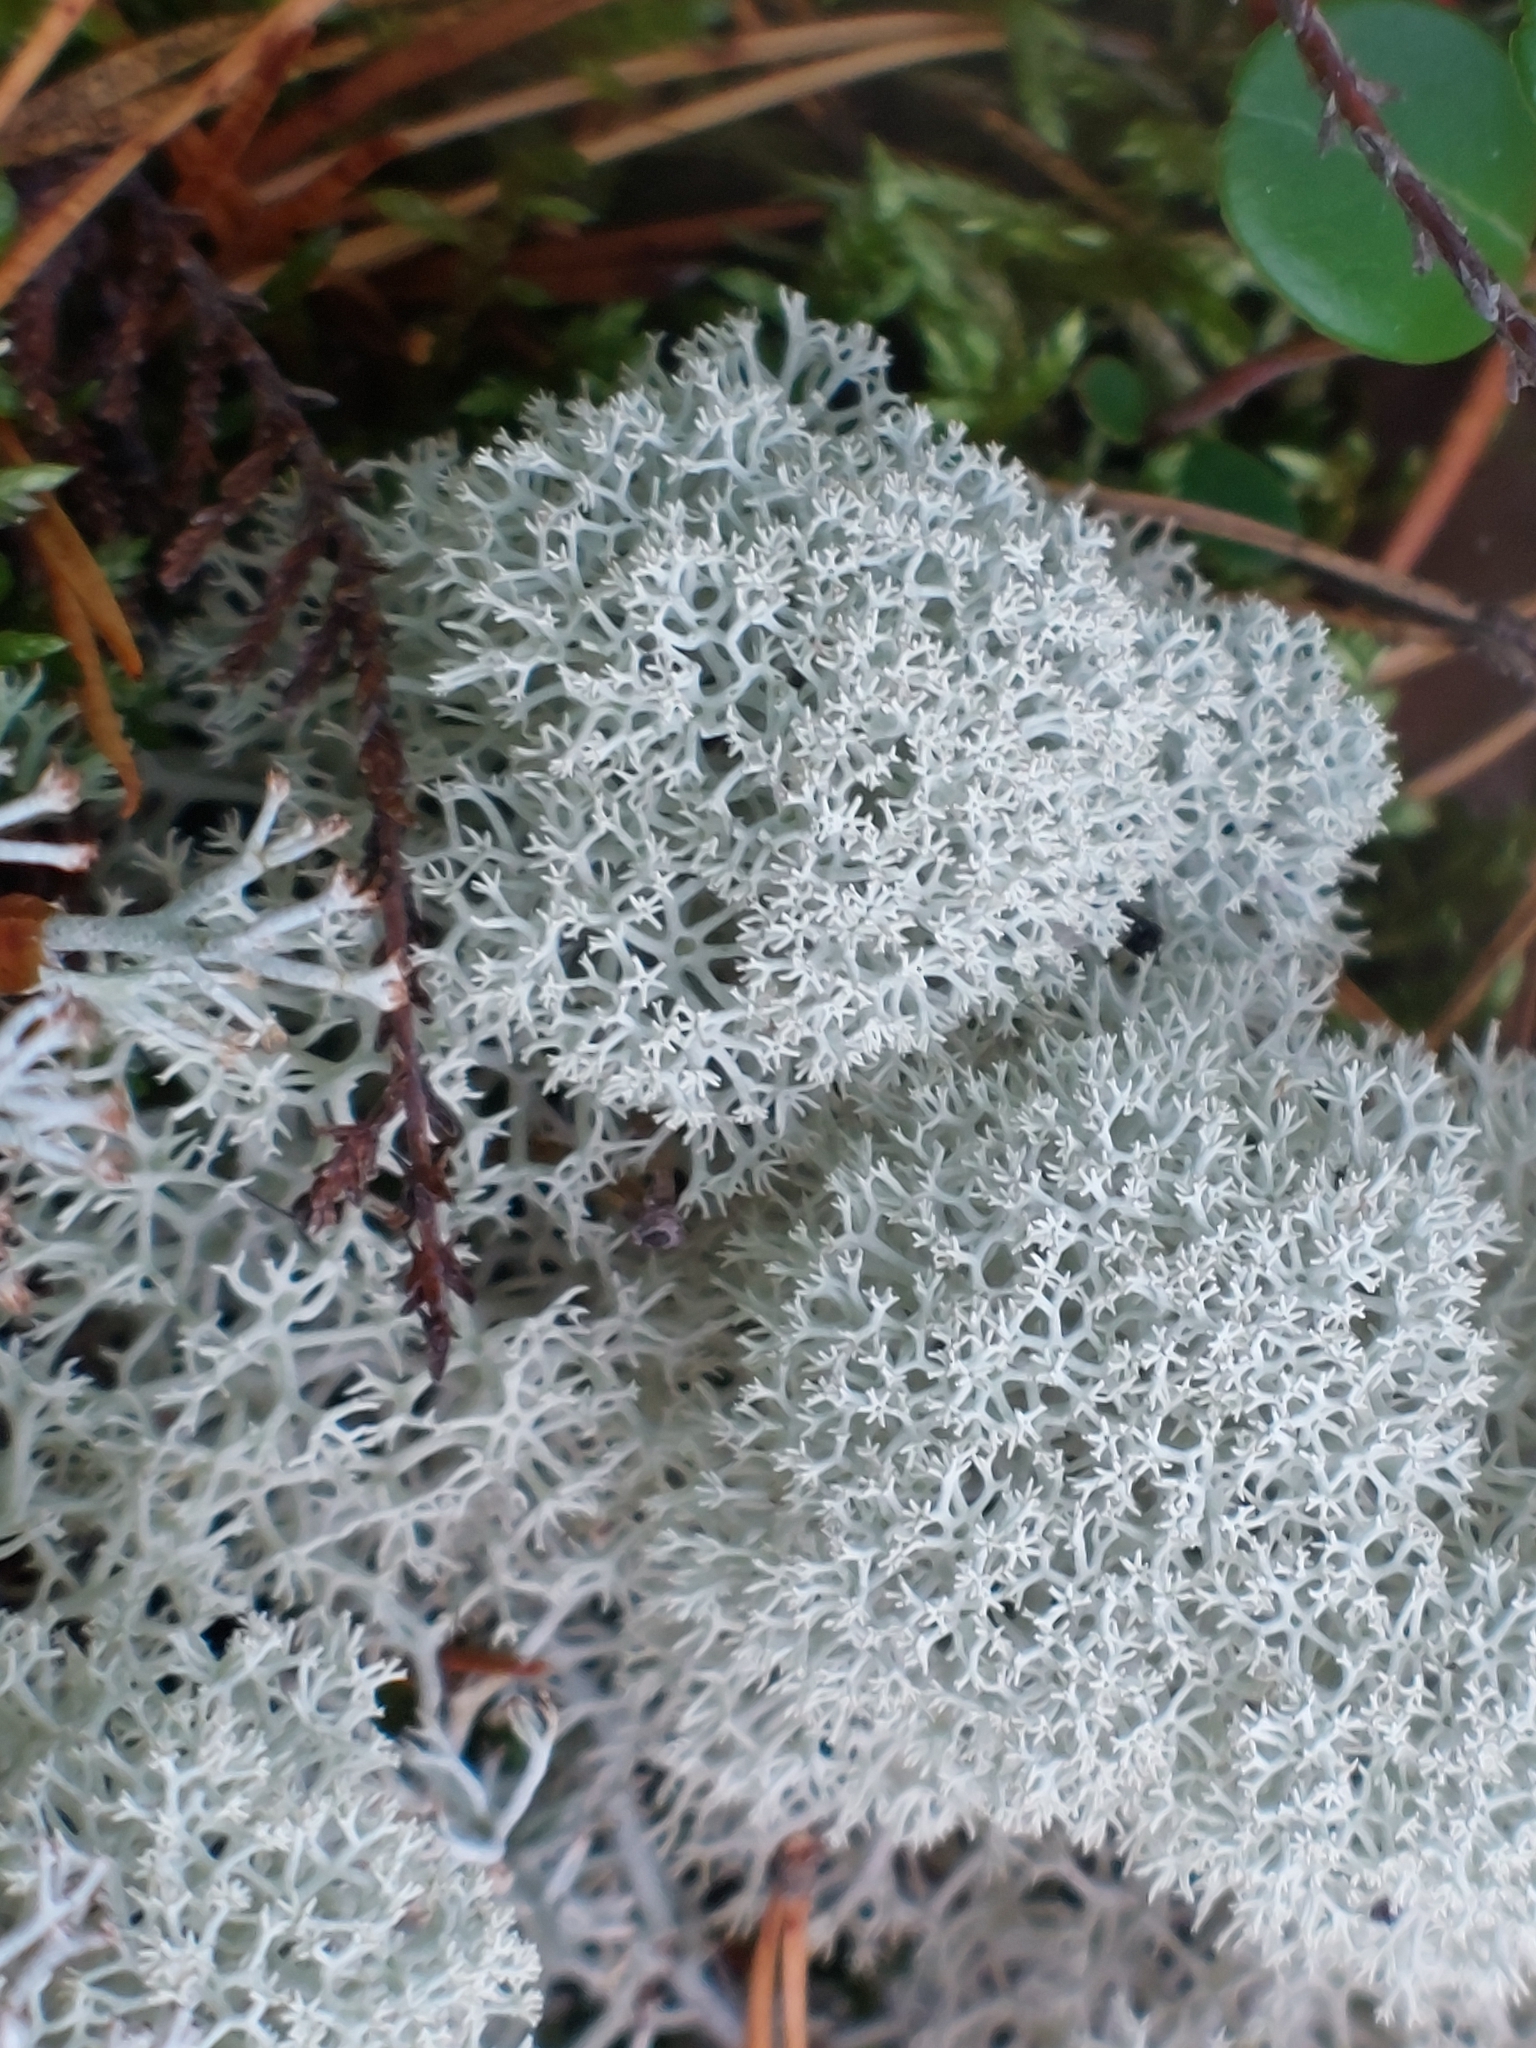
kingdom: Fungi
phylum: Ascomycota
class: Lecanoromycetes
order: Lecanorales
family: Cladoniaceae
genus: Cladonia
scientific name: Cladonia stellaris
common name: Star-tipped reindeer lichen
